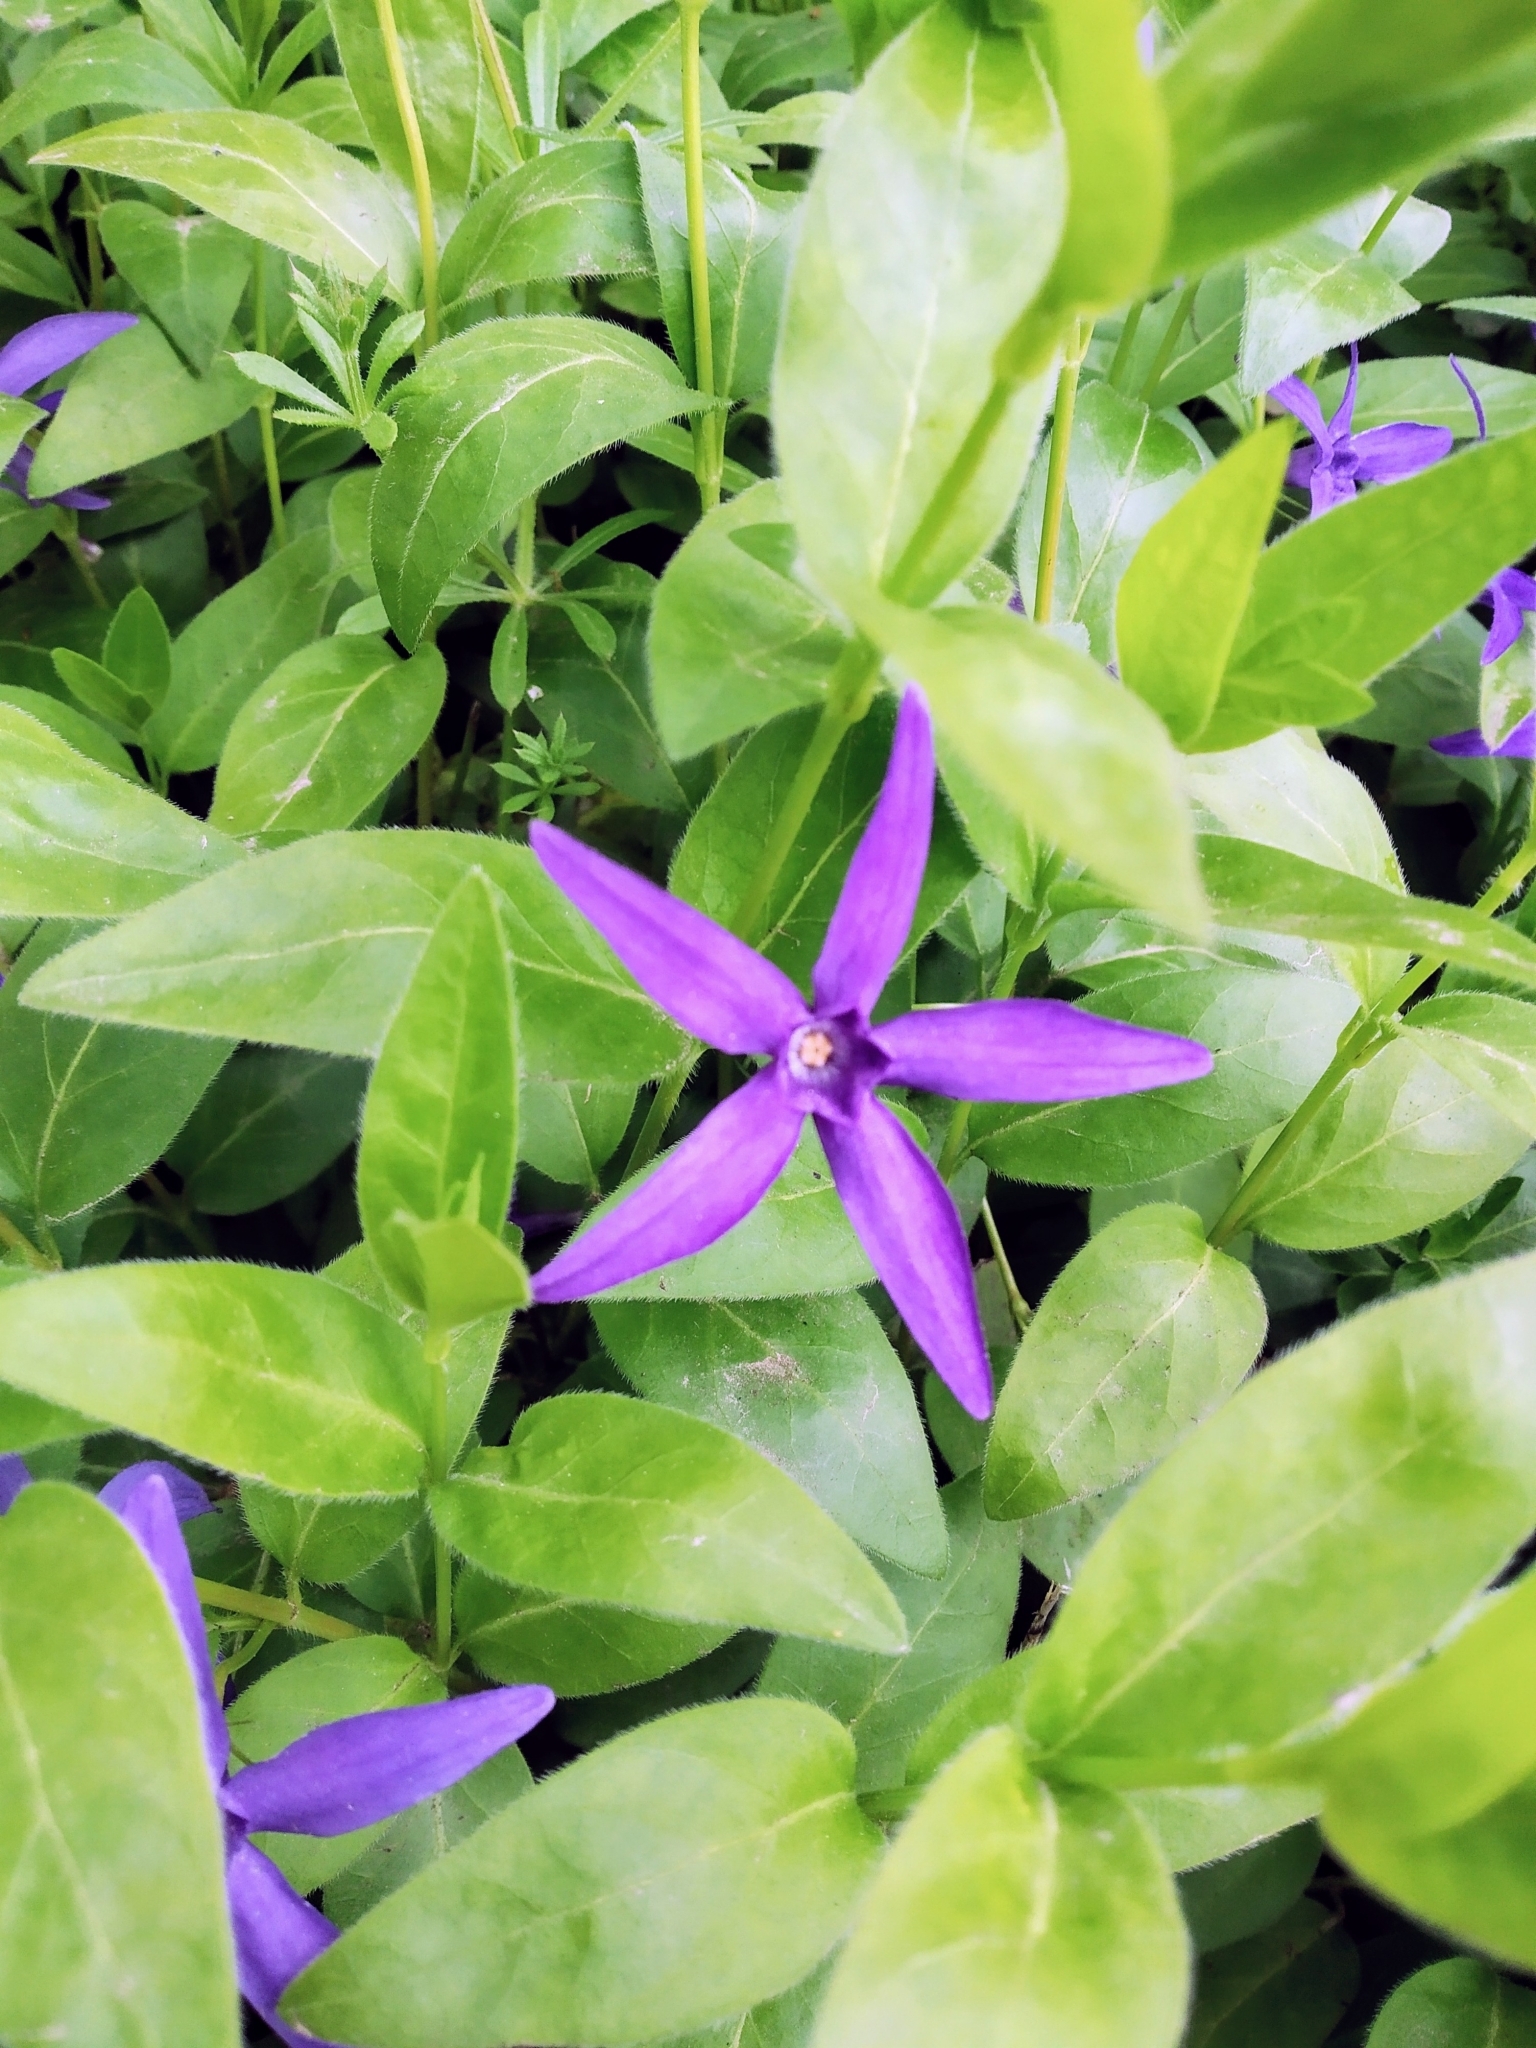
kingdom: Plantae
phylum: Tracheophyta
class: Magnoliopsida
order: Gentianales
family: Apocynaceae
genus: Vinca
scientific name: Vinca major
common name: Greater periwinkle
